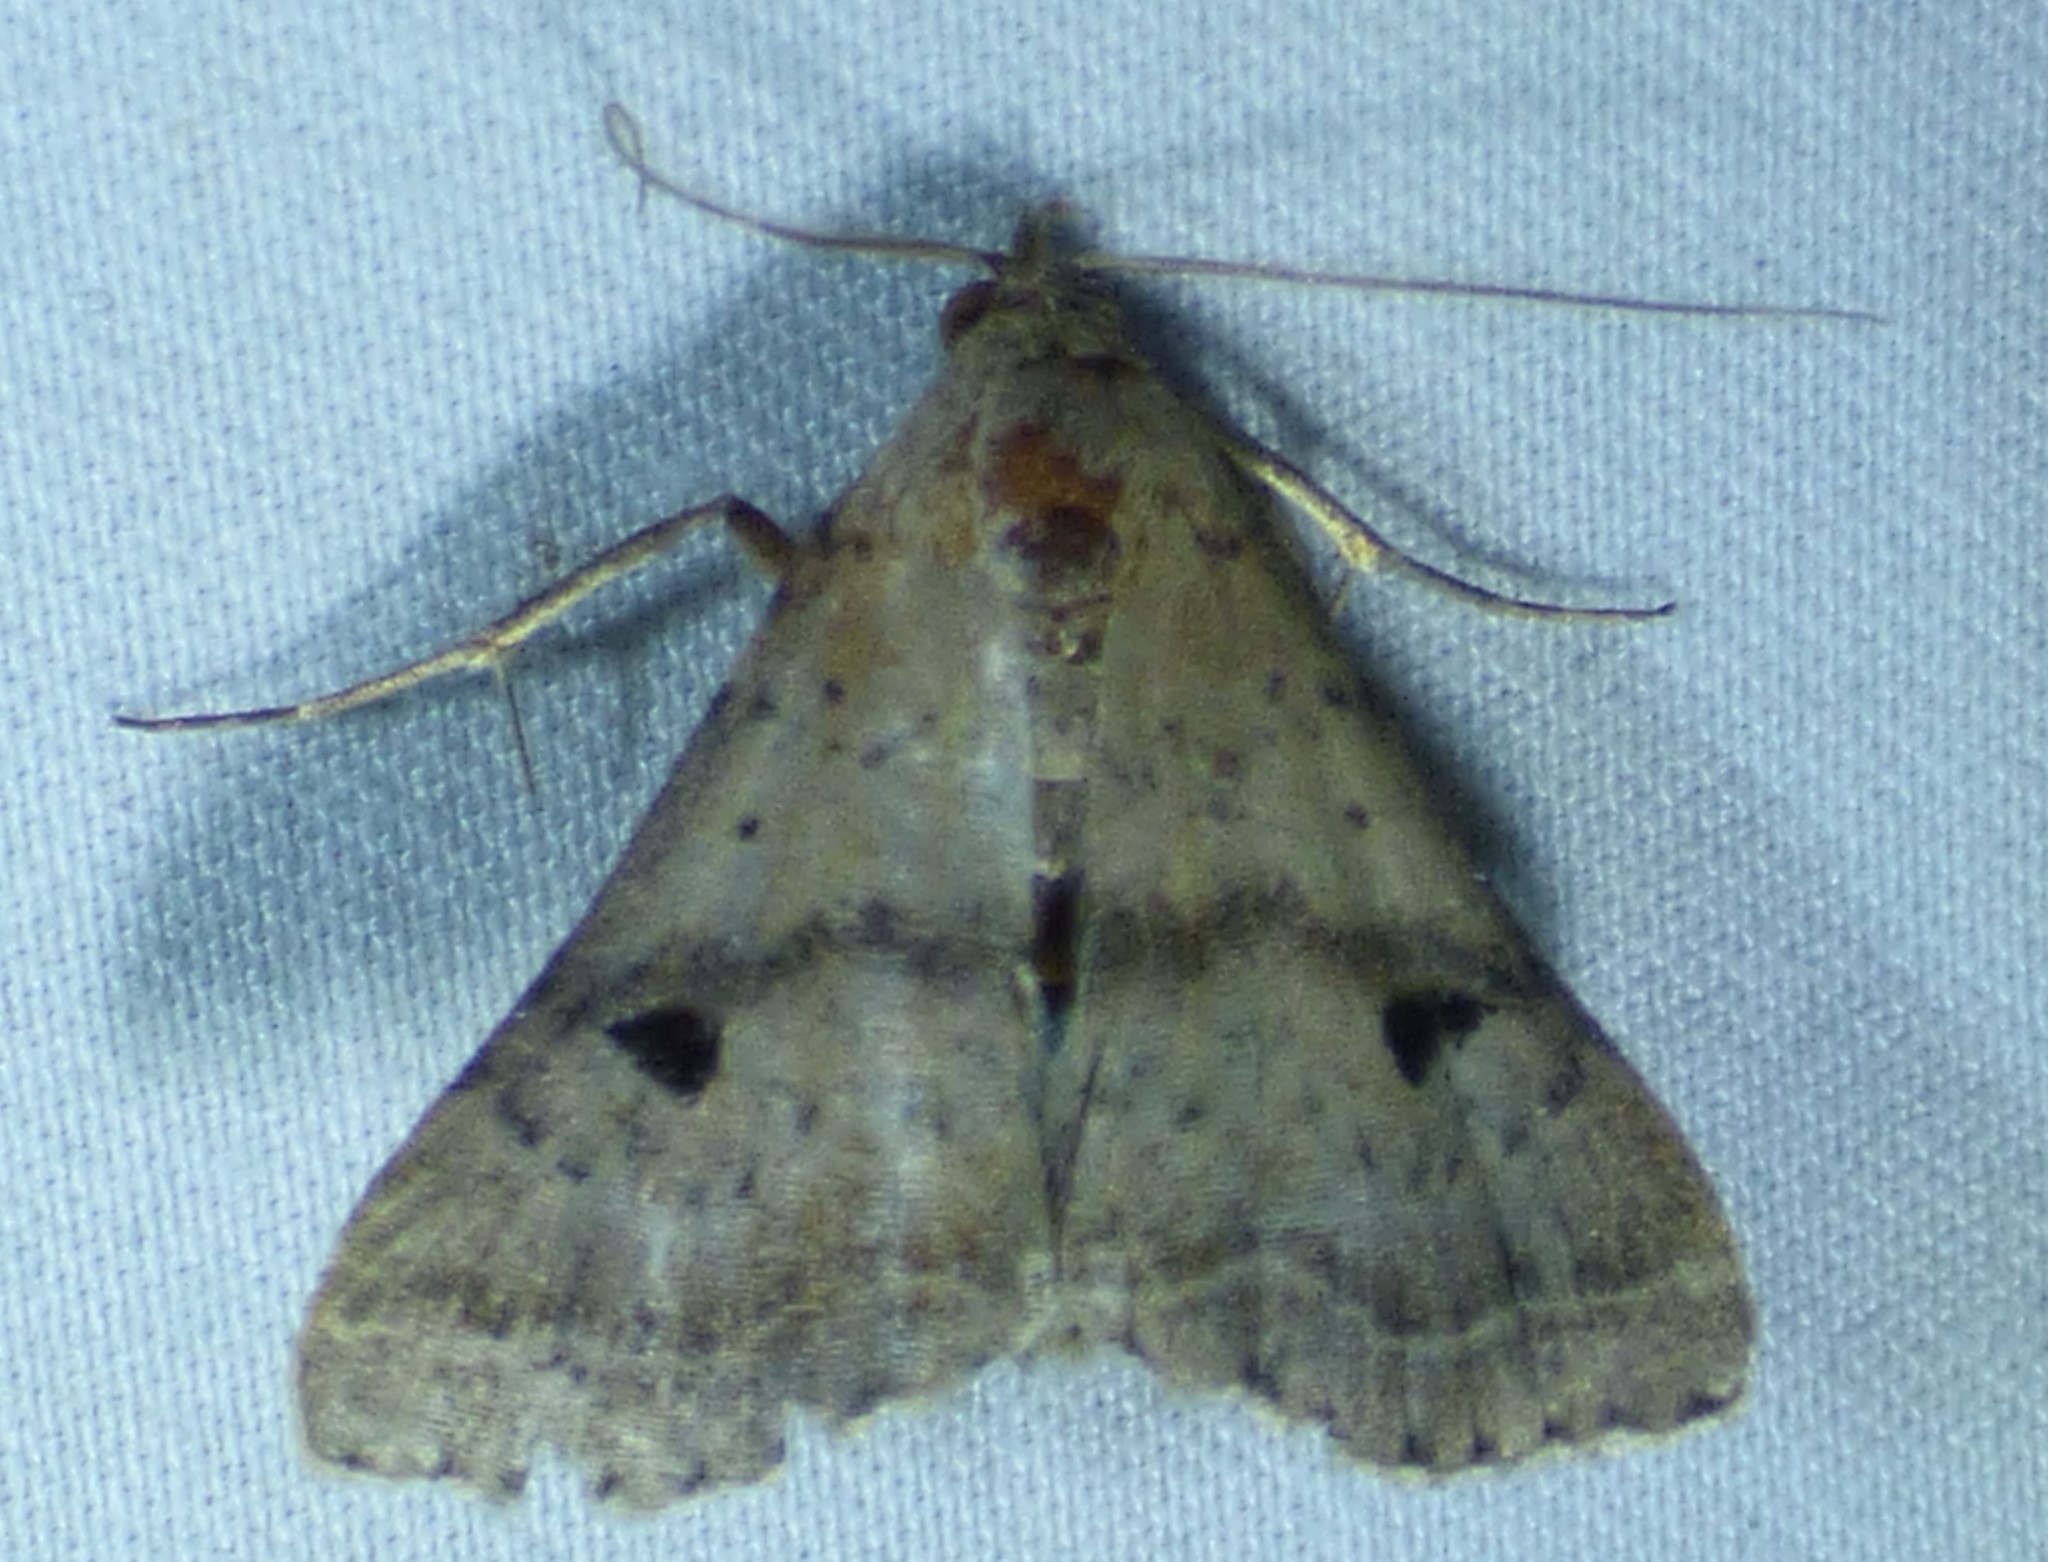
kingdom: Animalia
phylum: Arthropoda
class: Insecta
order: Lepidoptera
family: Erebidae
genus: Bleptina
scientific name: Bleptina caradrinalis
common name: Bent-winged owlet
